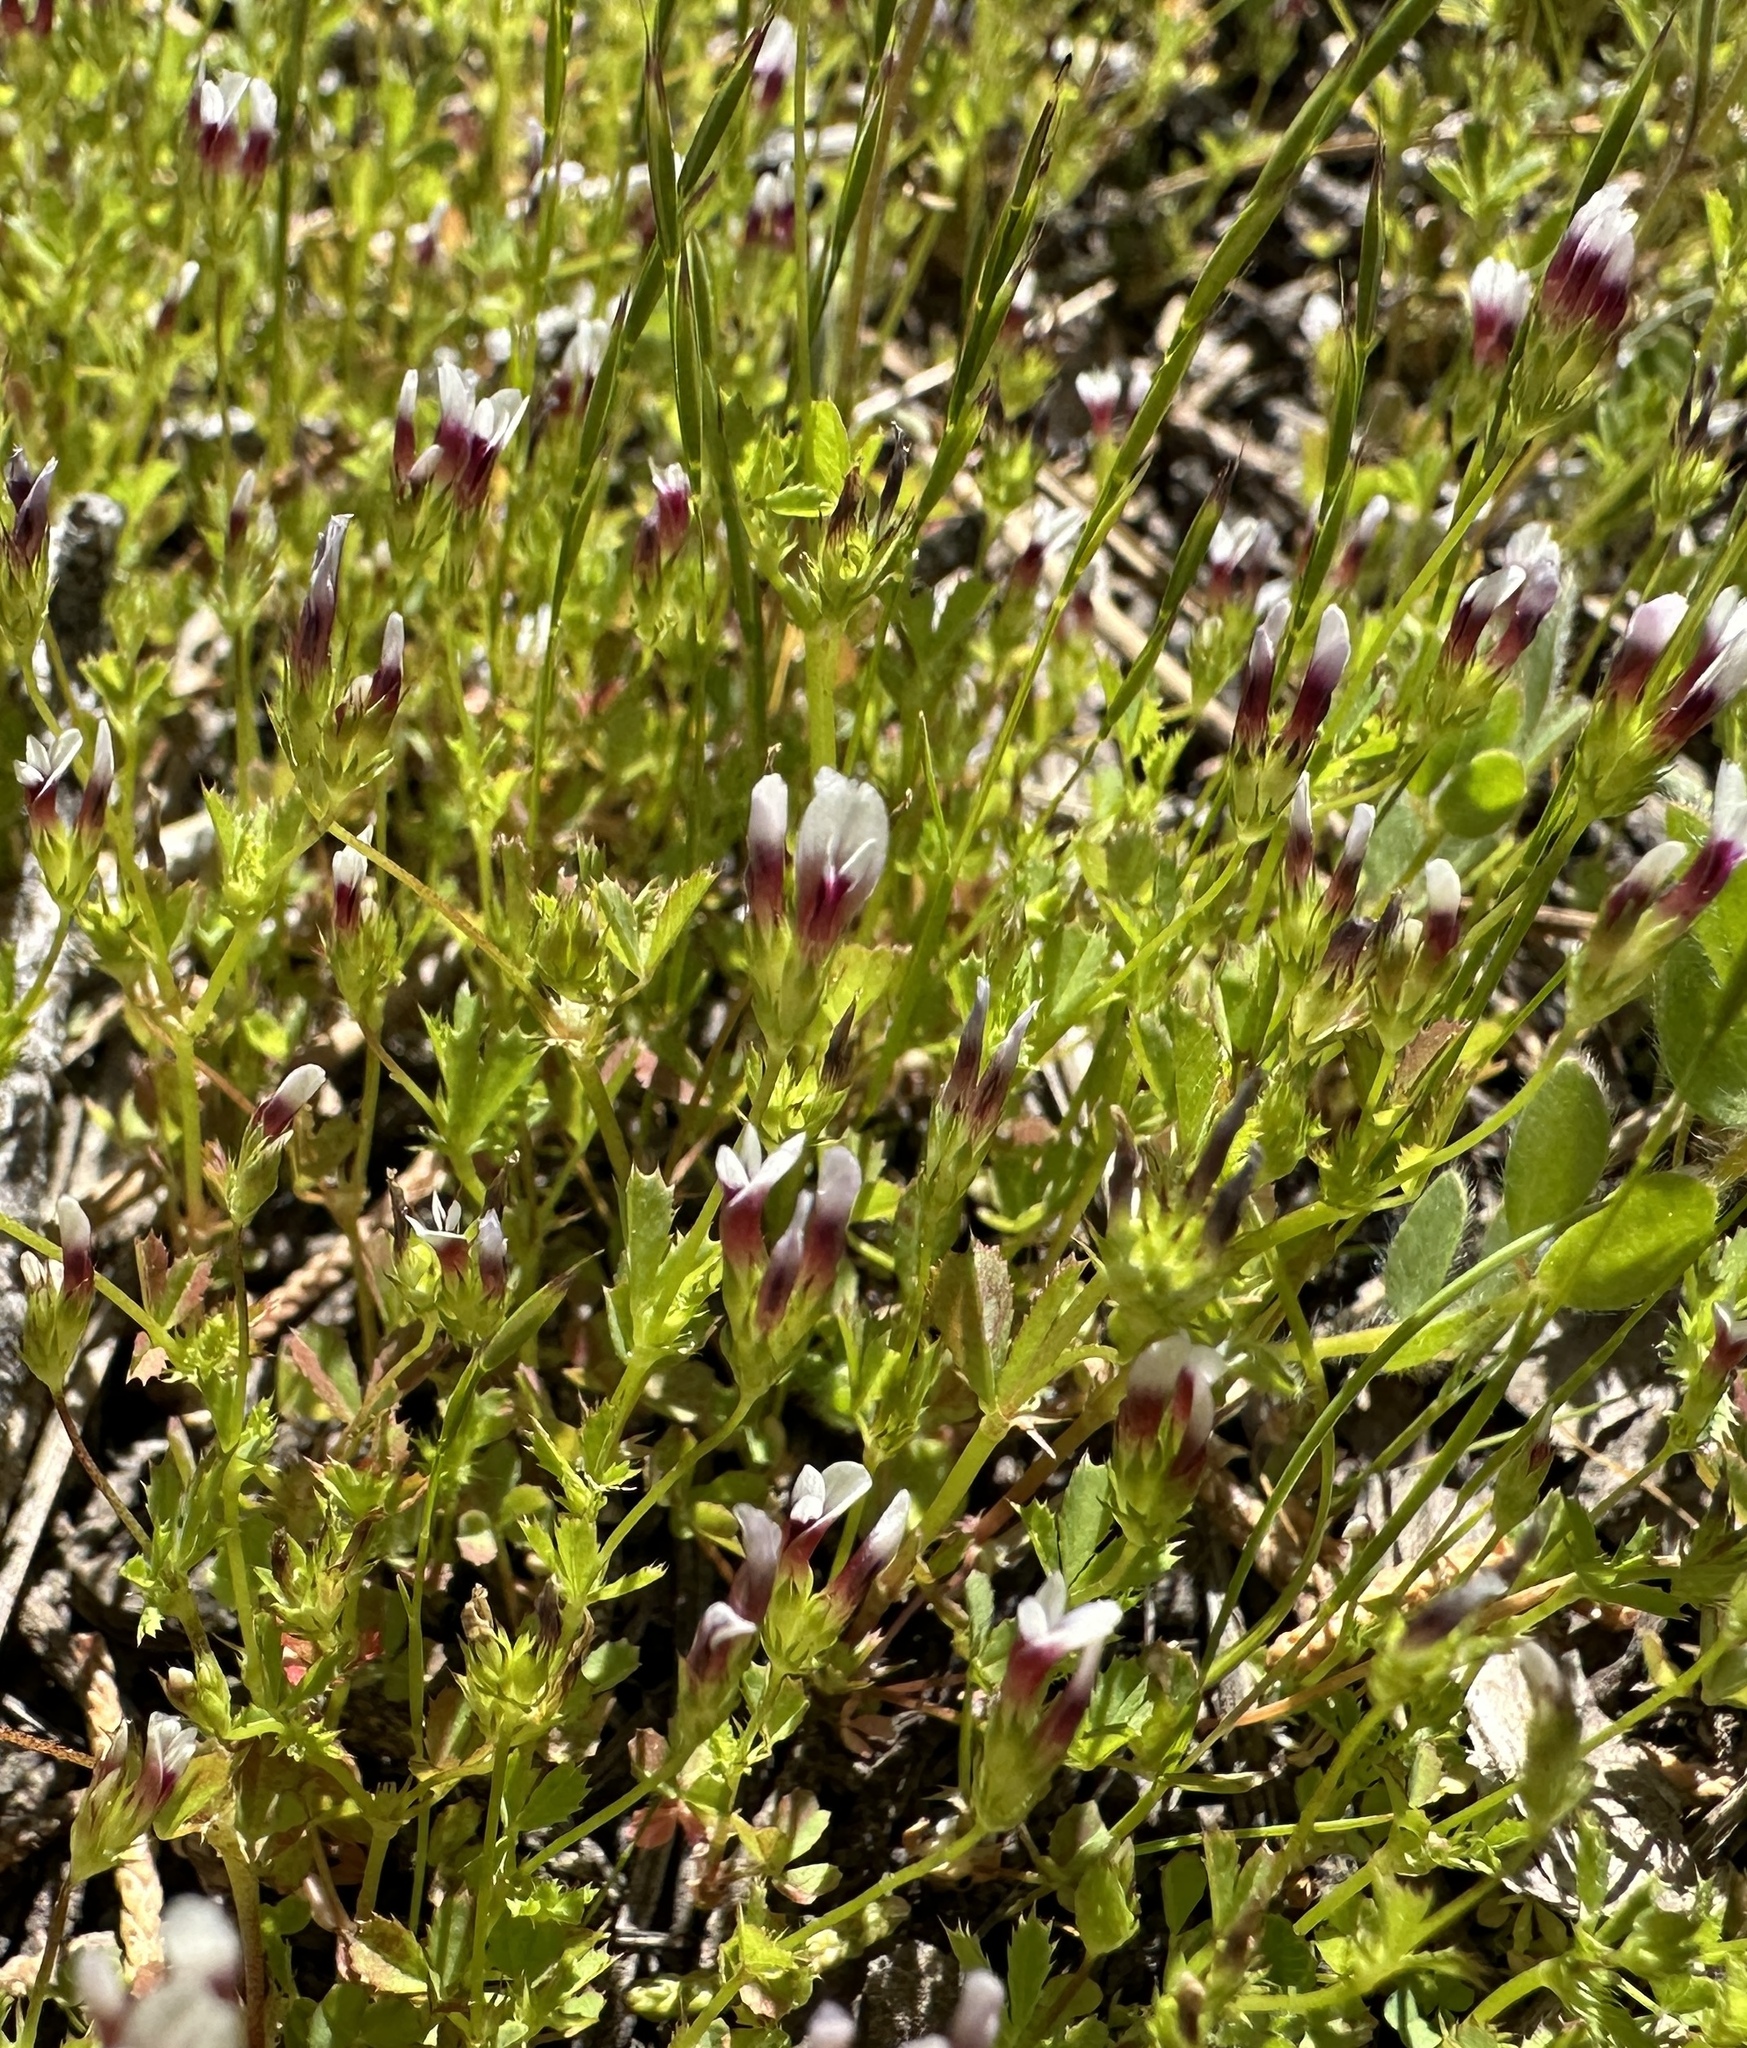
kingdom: Plantae
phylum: Tracheophyta
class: Magnoliopsida
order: Fabales
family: Fabaceae
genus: Trifolium
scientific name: Trifolium variegatum
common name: Whitetip clover
